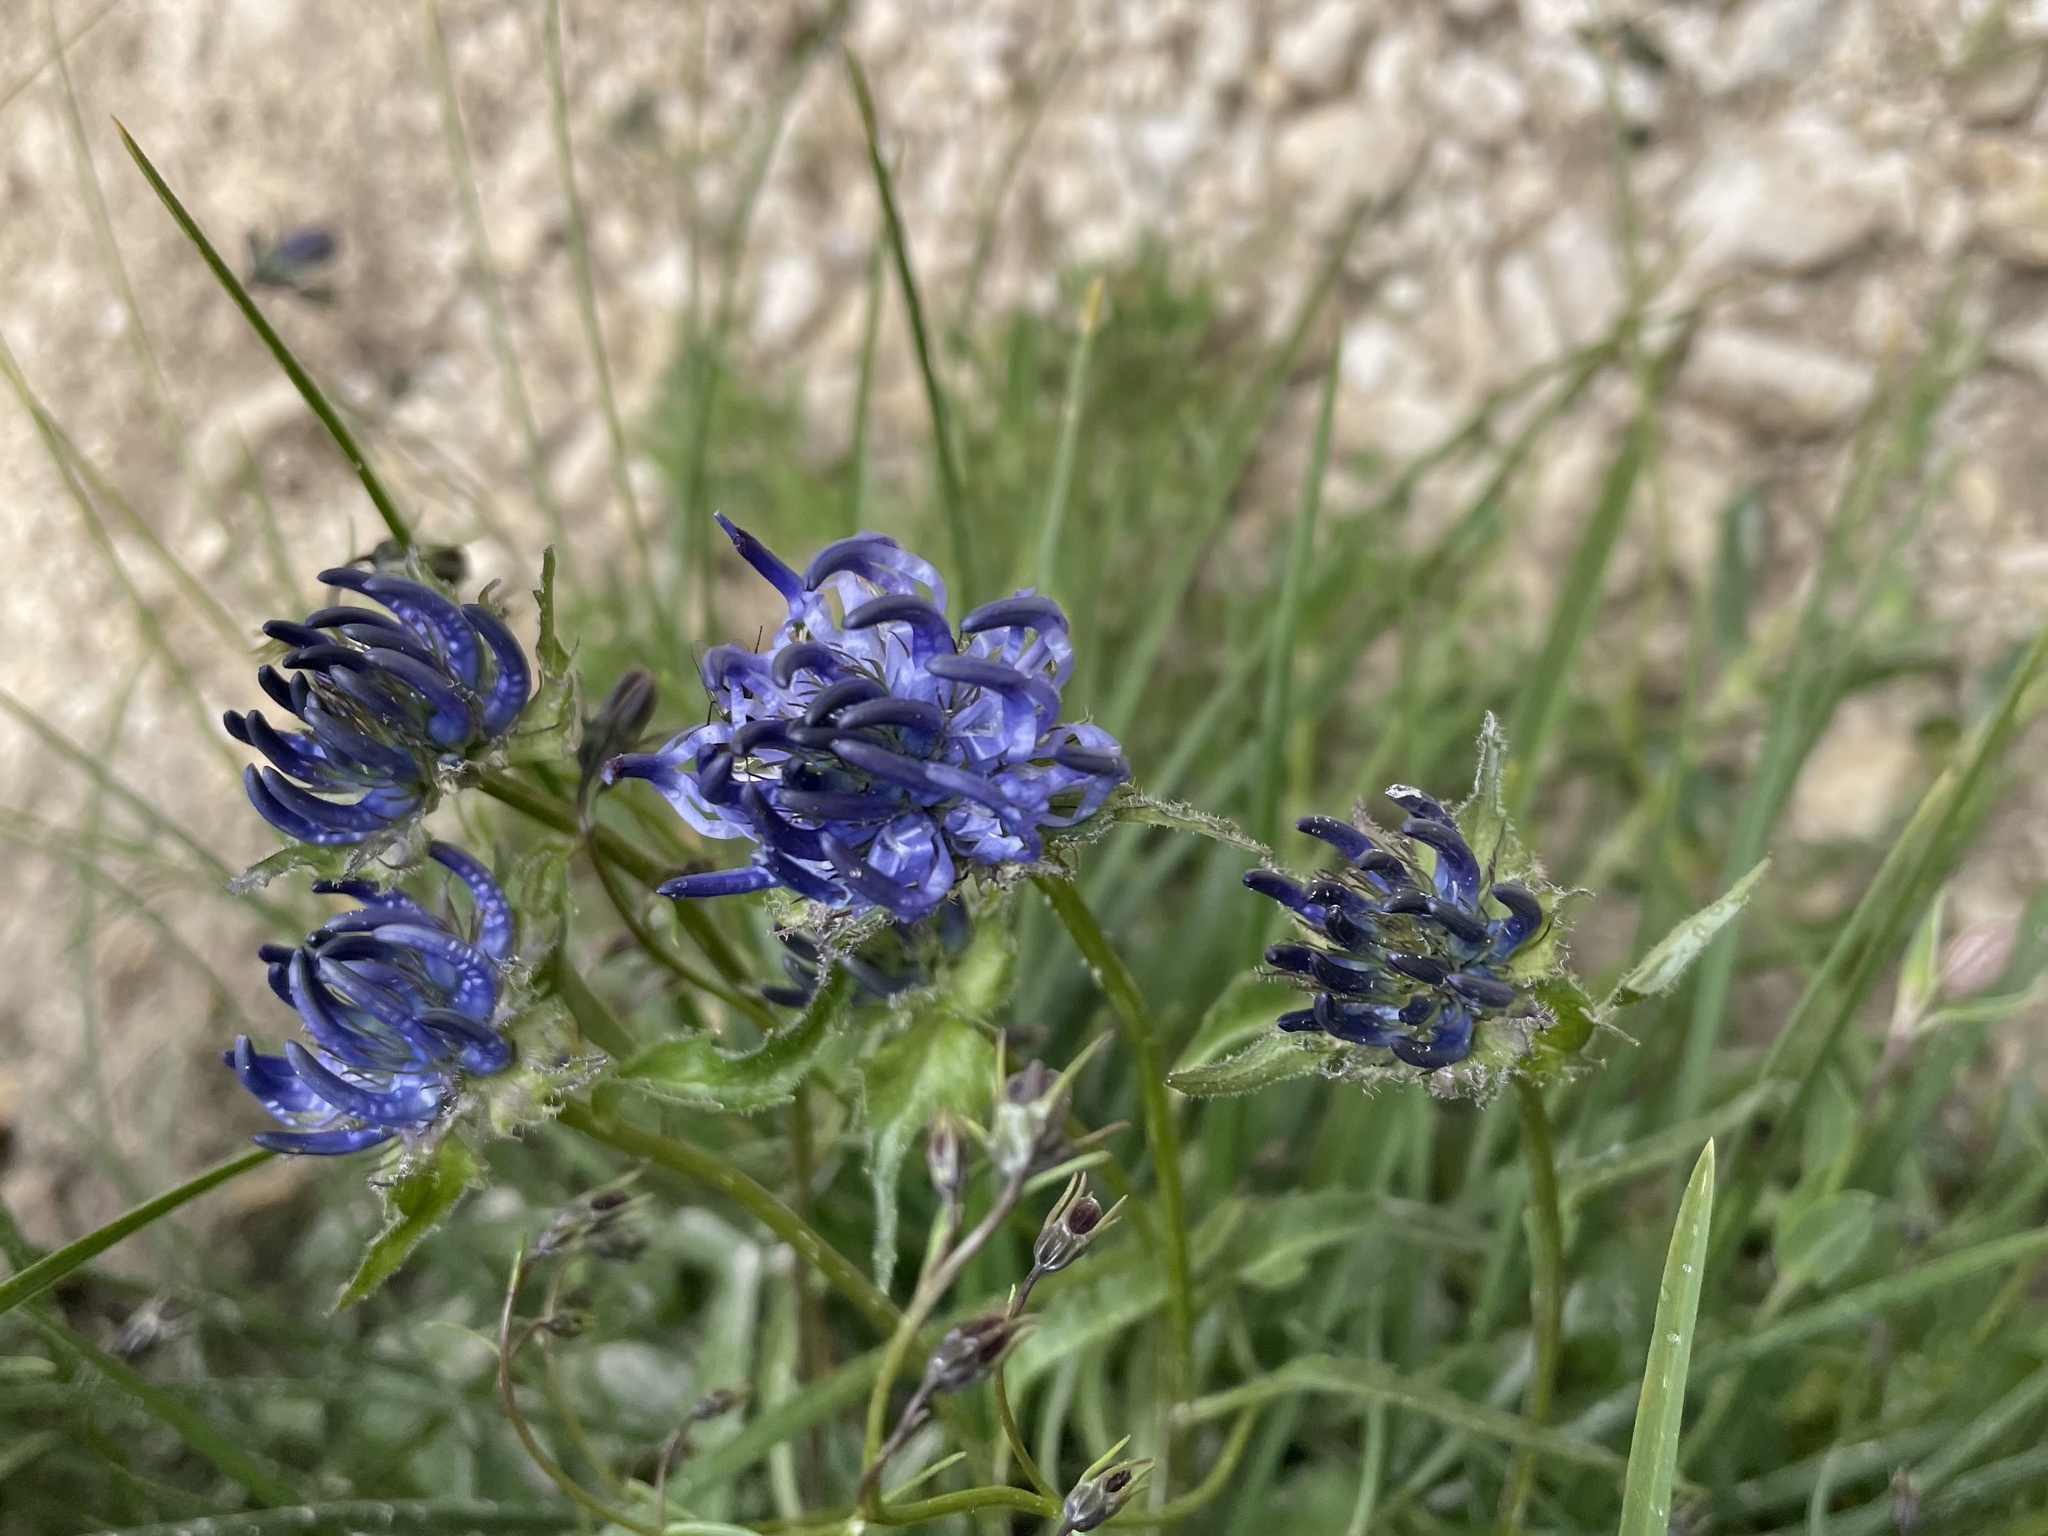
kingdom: Plantae
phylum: Tracheophyta
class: Magnoliopsida
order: Asterales
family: Campanulaceae
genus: Phyteuma
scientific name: Phyteuma sieberi
